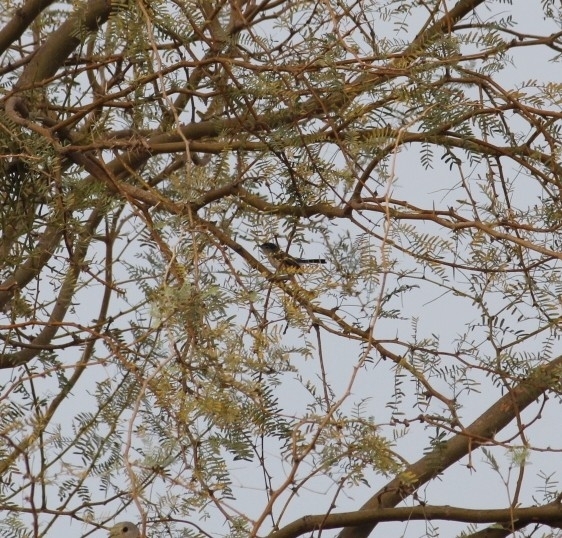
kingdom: Animalia
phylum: Chordata
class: Aves
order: Passeriformes
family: Polioptilidae
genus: Polioptila
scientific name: Polioptila melanura
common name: Black-tailed gnatcatcher
